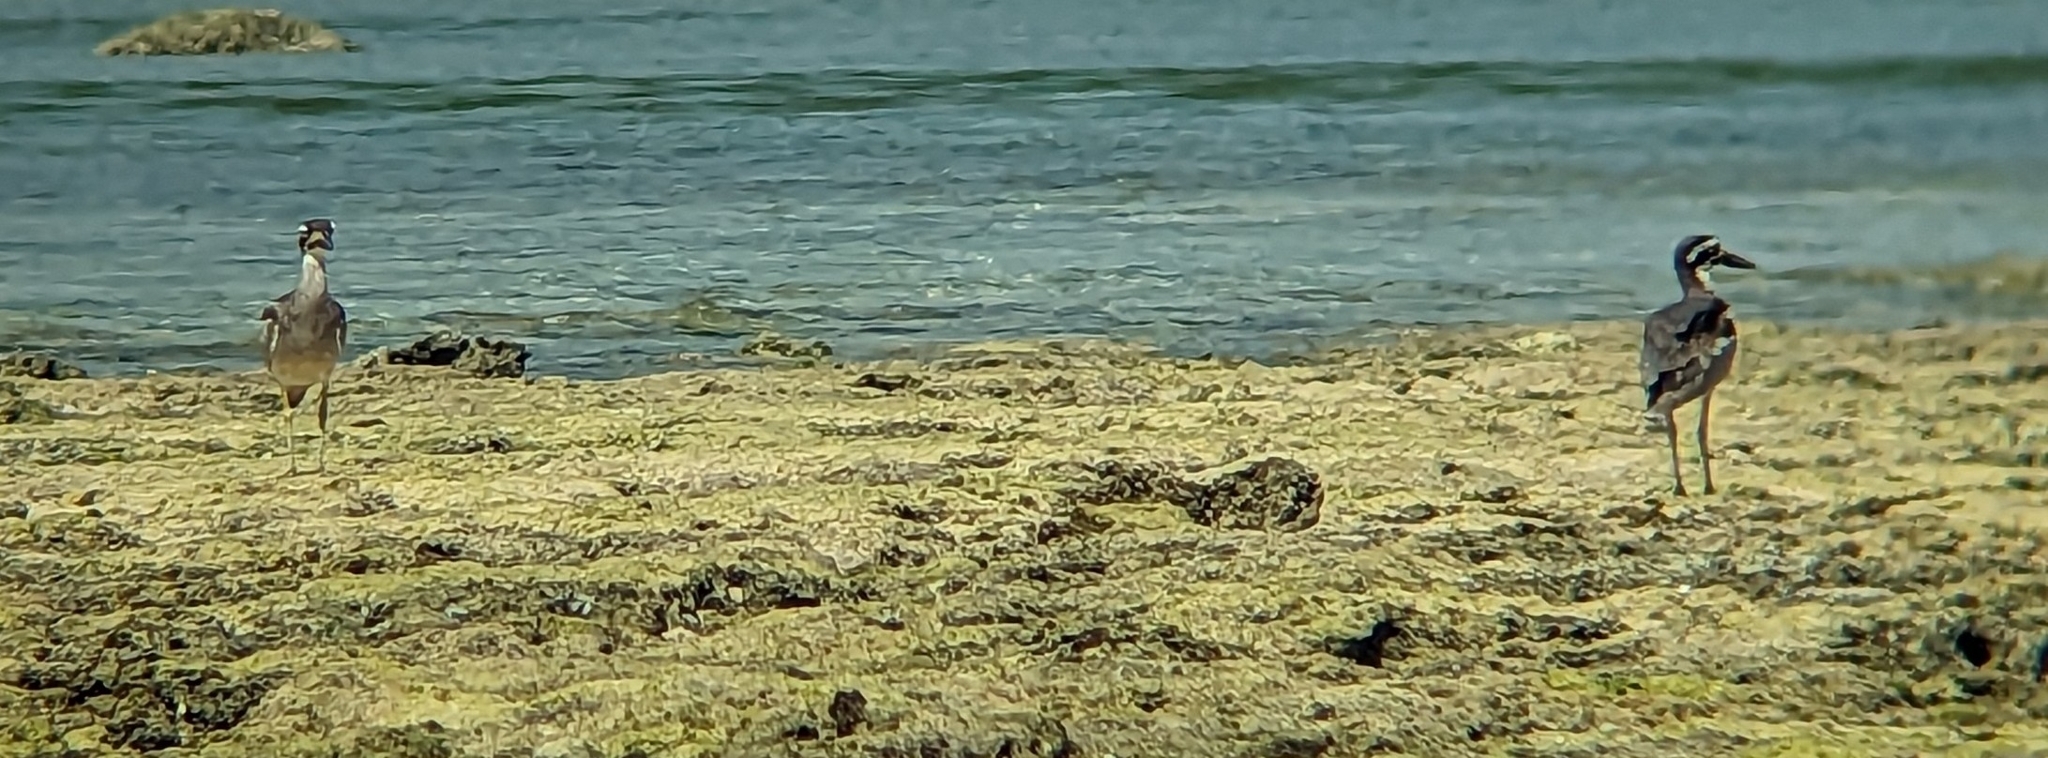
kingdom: Animalia
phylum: Chordata
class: Aves
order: Charadriiformes
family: Burhinidae
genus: Esacus
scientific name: Esacus magnirostris
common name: Beach stone-curlew
